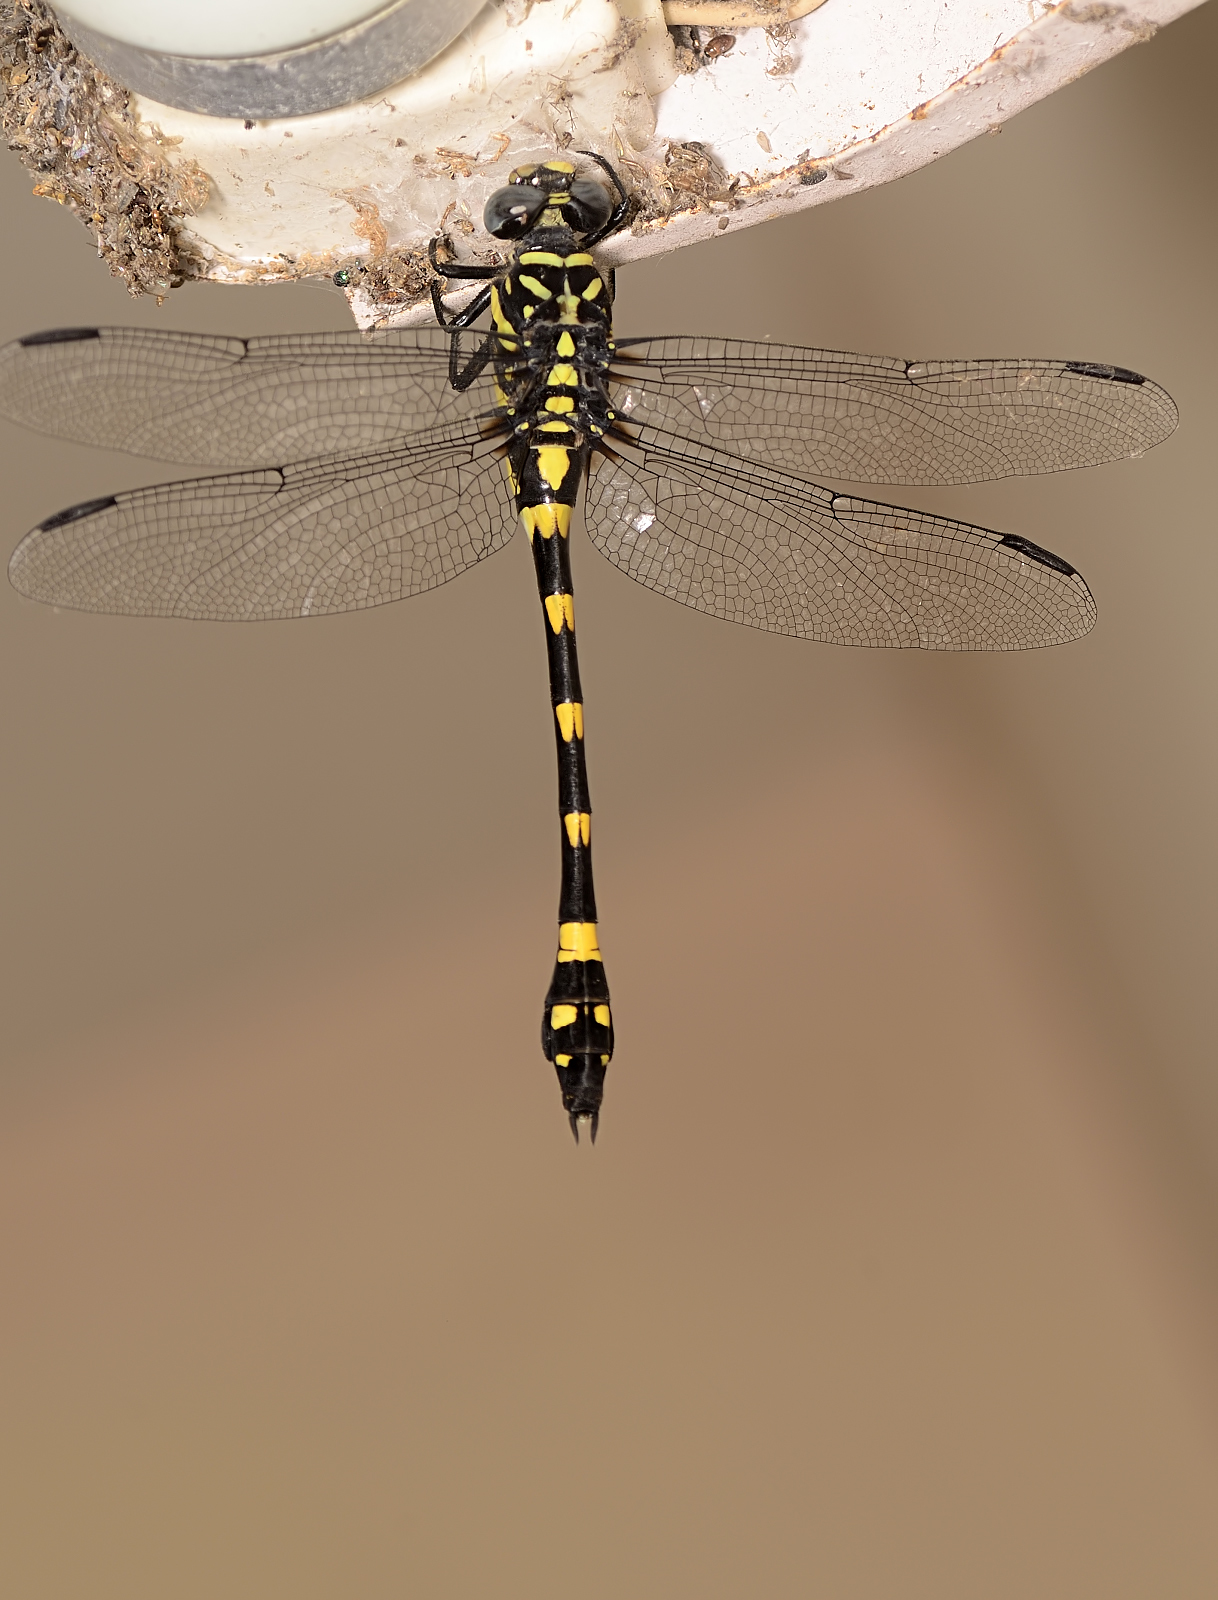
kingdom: Animalia
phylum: Arthropoda
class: Insecta
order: Odonata
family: Gomphidae
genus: Ictinogomphus
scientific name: Ictinogomphus rapax
